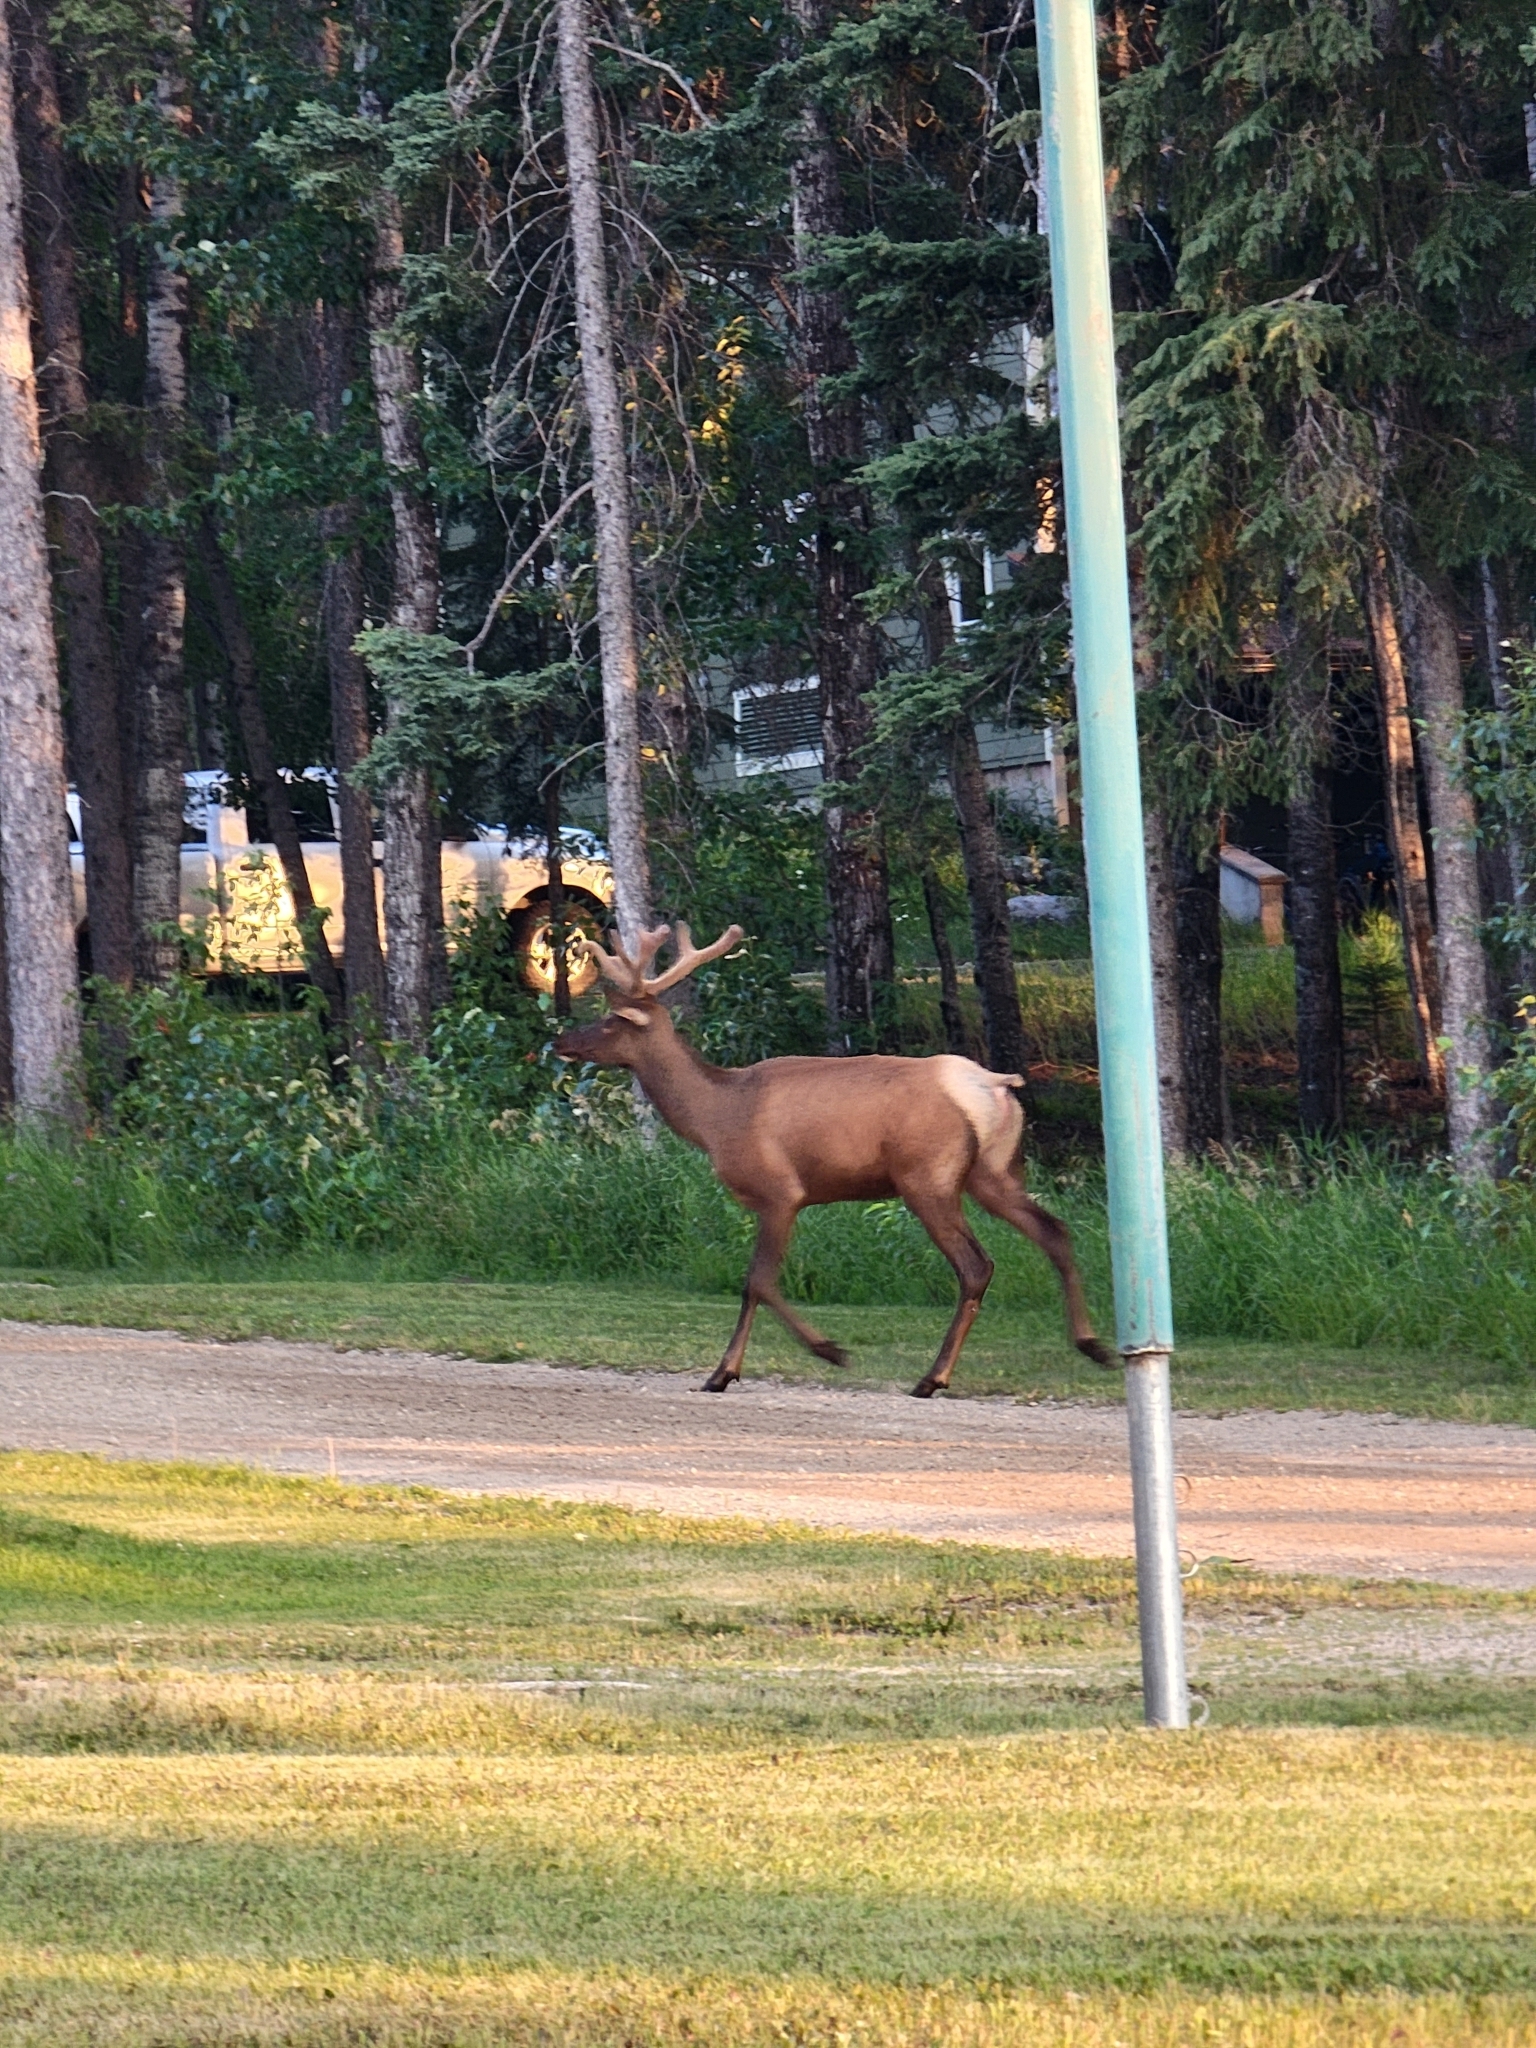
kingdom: Animalia
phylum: Chordata
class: Mammalia
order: Artiodactyla
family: Cervidae
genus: Cervus
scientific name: Cervus elaphus
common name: Red deer
